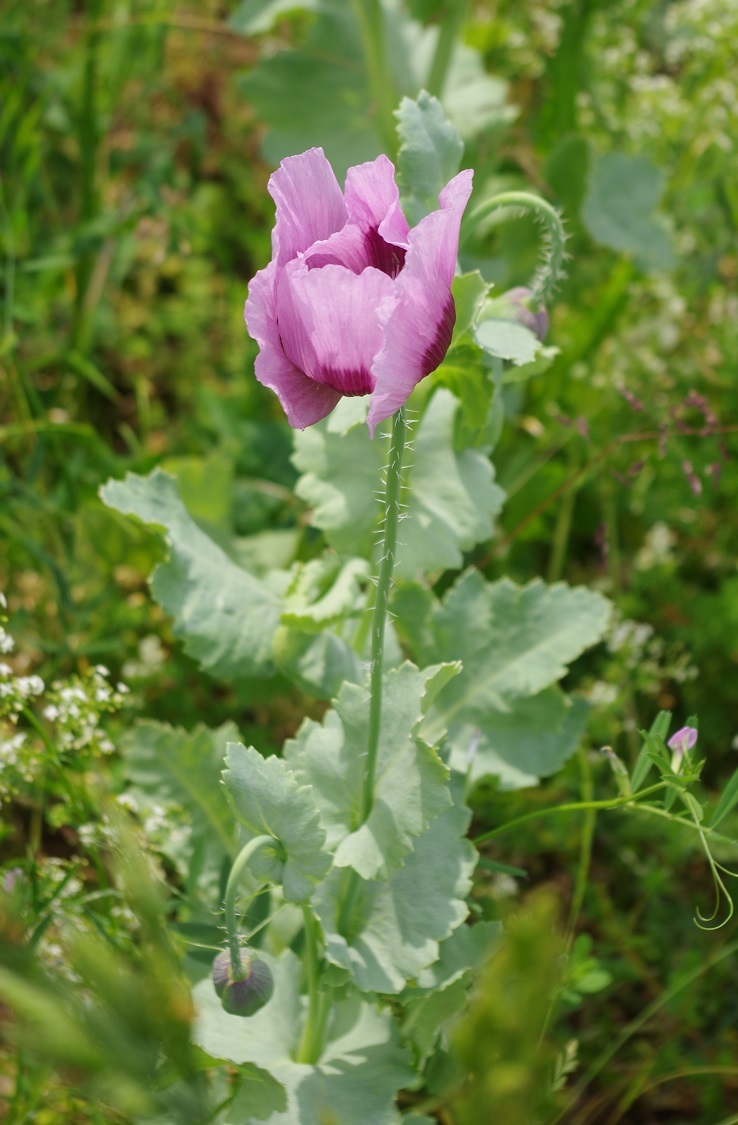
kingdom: Plantae
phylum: Tracheophyta
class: Magnoliopsida
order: Ranunculales
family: Papaveraceae
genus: Papaver
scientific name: Papaver somniferum
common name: Opium poppy
